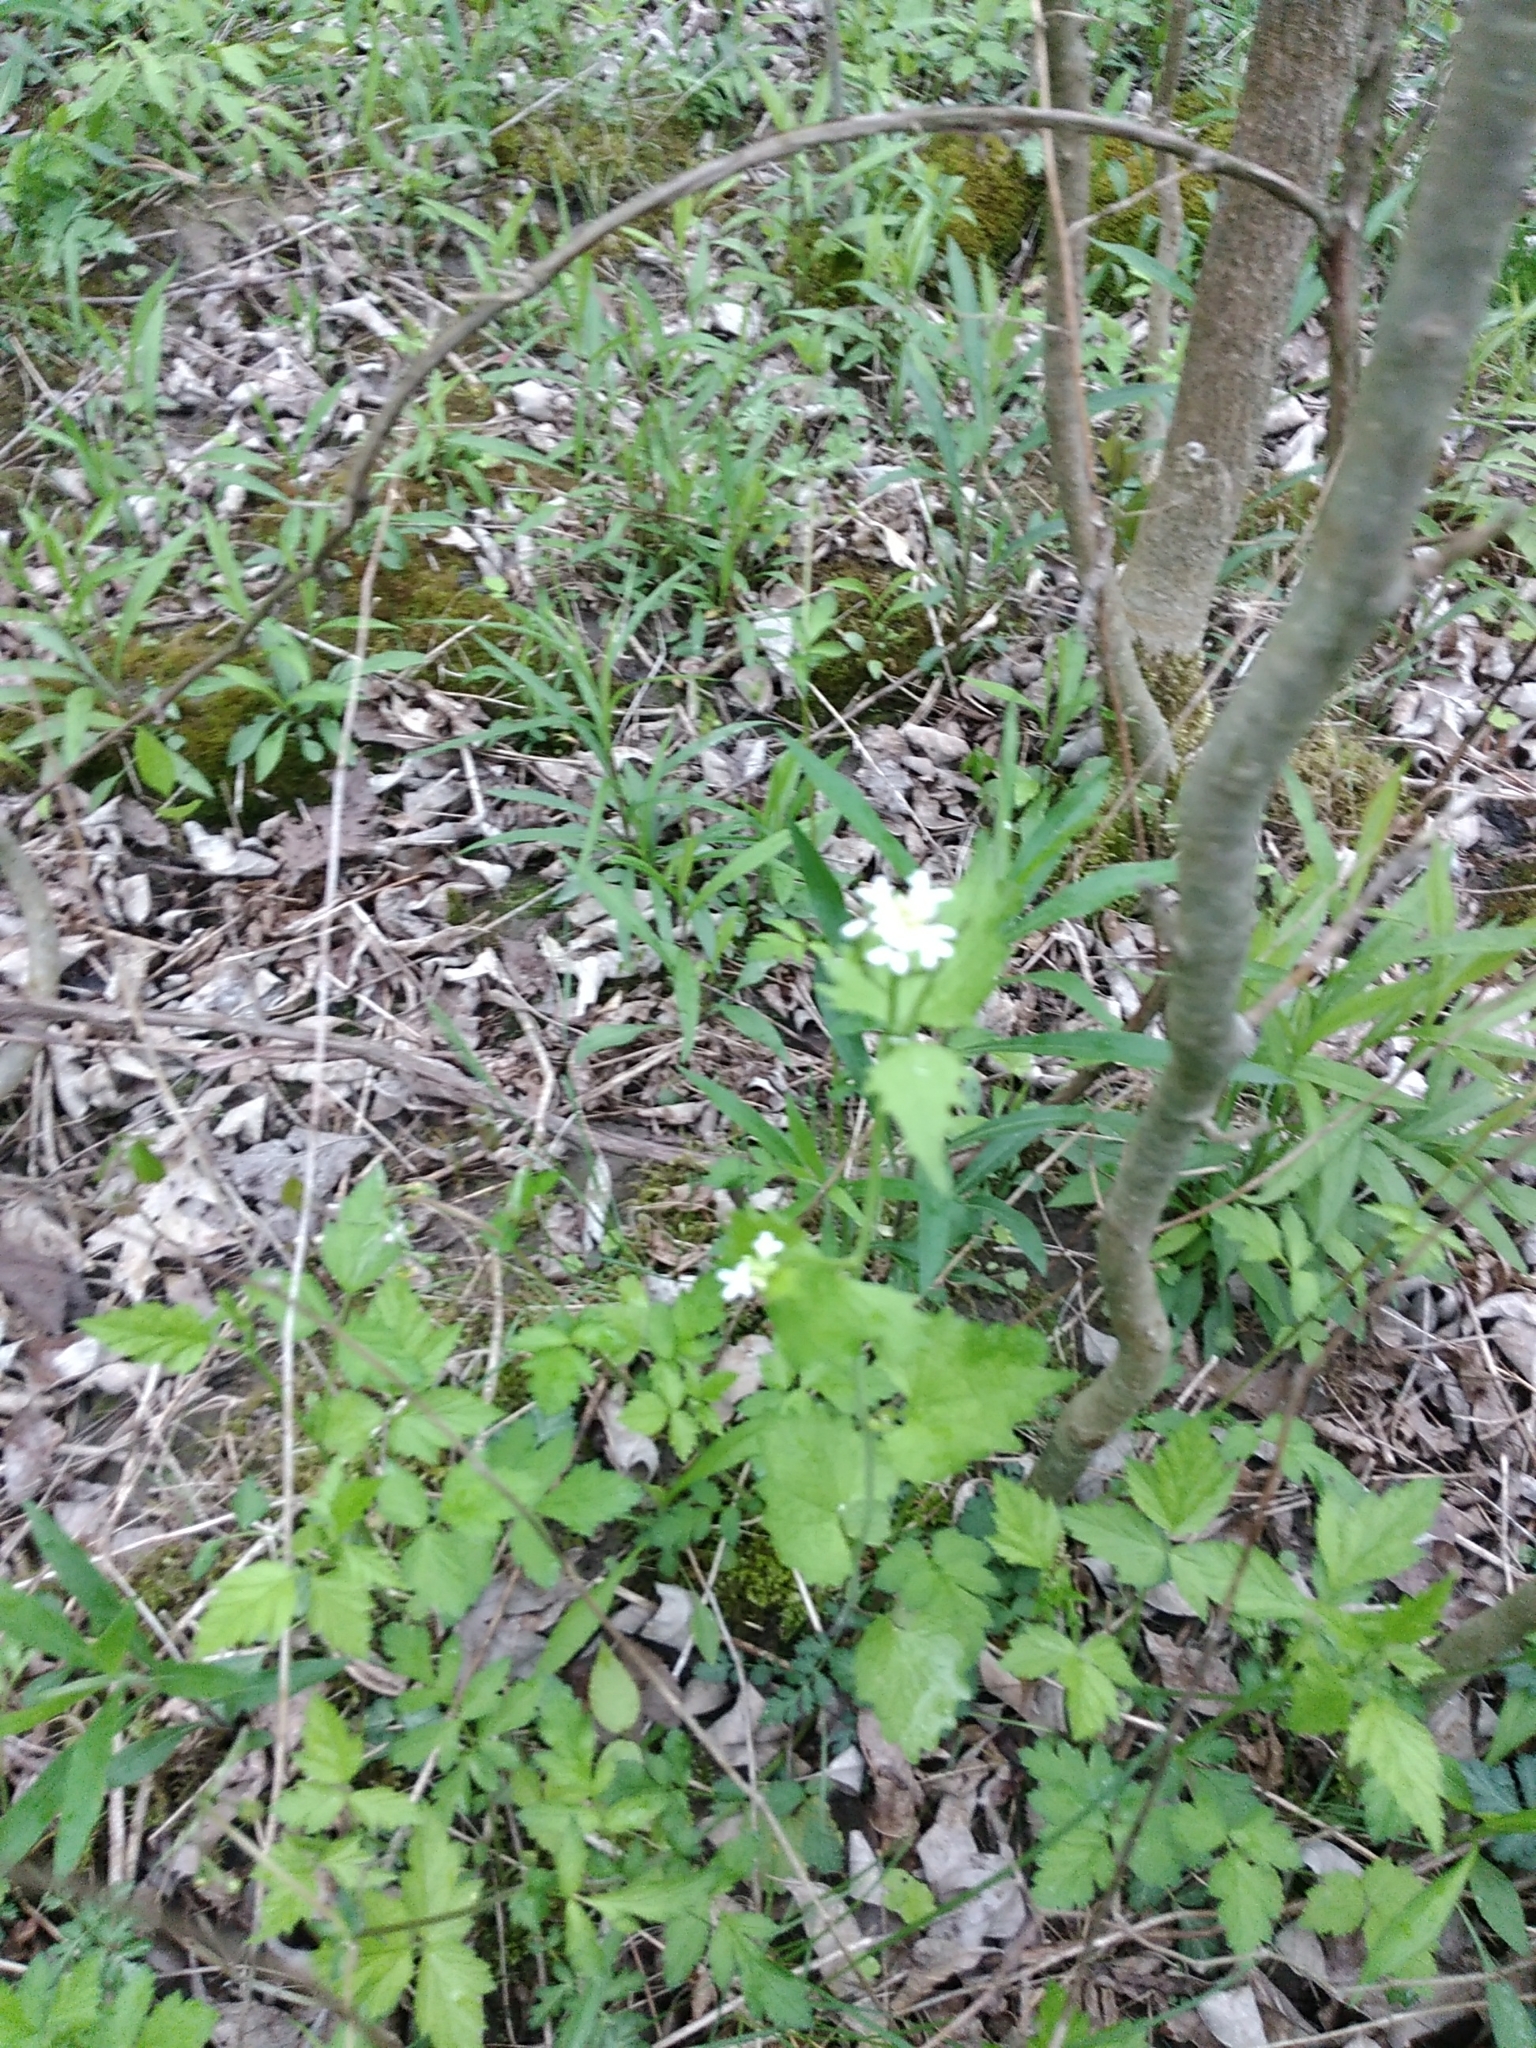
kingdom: Plantae
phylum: Tracheophyta
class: Magnoliopsida
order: Brassicales
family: Brassicaceae
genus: Alliaria
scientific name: Alliaria petiolata
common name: Garlic mustard
